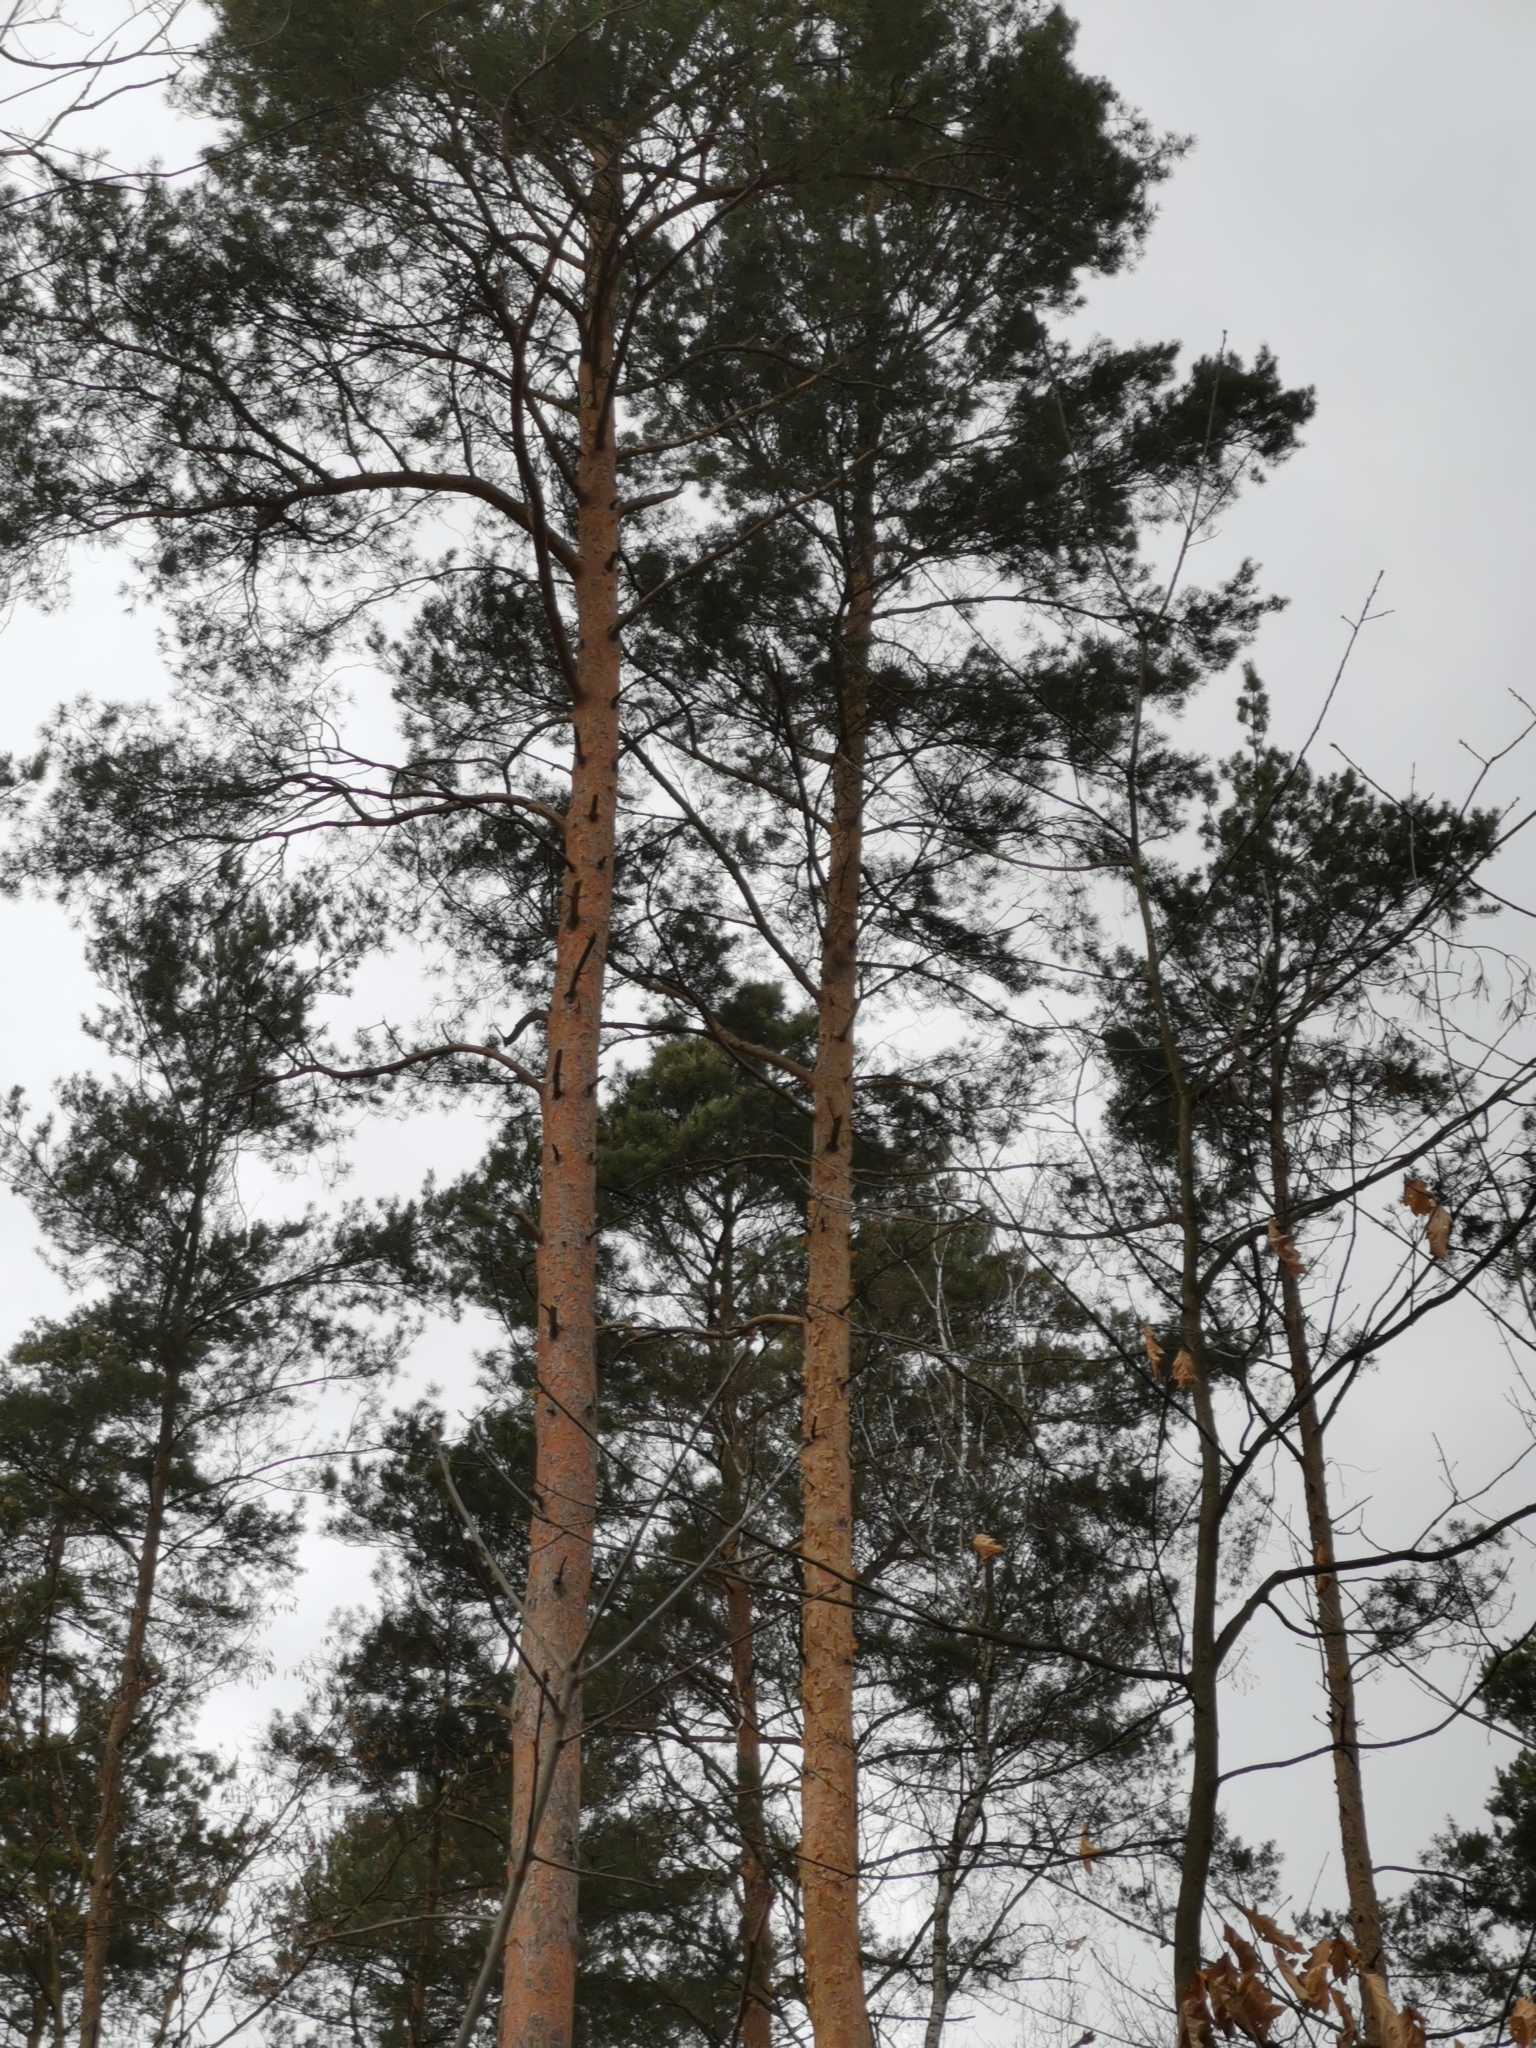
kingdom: Plantae
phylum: Tracheophyta
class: Pinopsida
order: Pinales
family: Pinaceae
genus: Pinus
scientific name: Pinus sylvestris
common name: Scots pine
